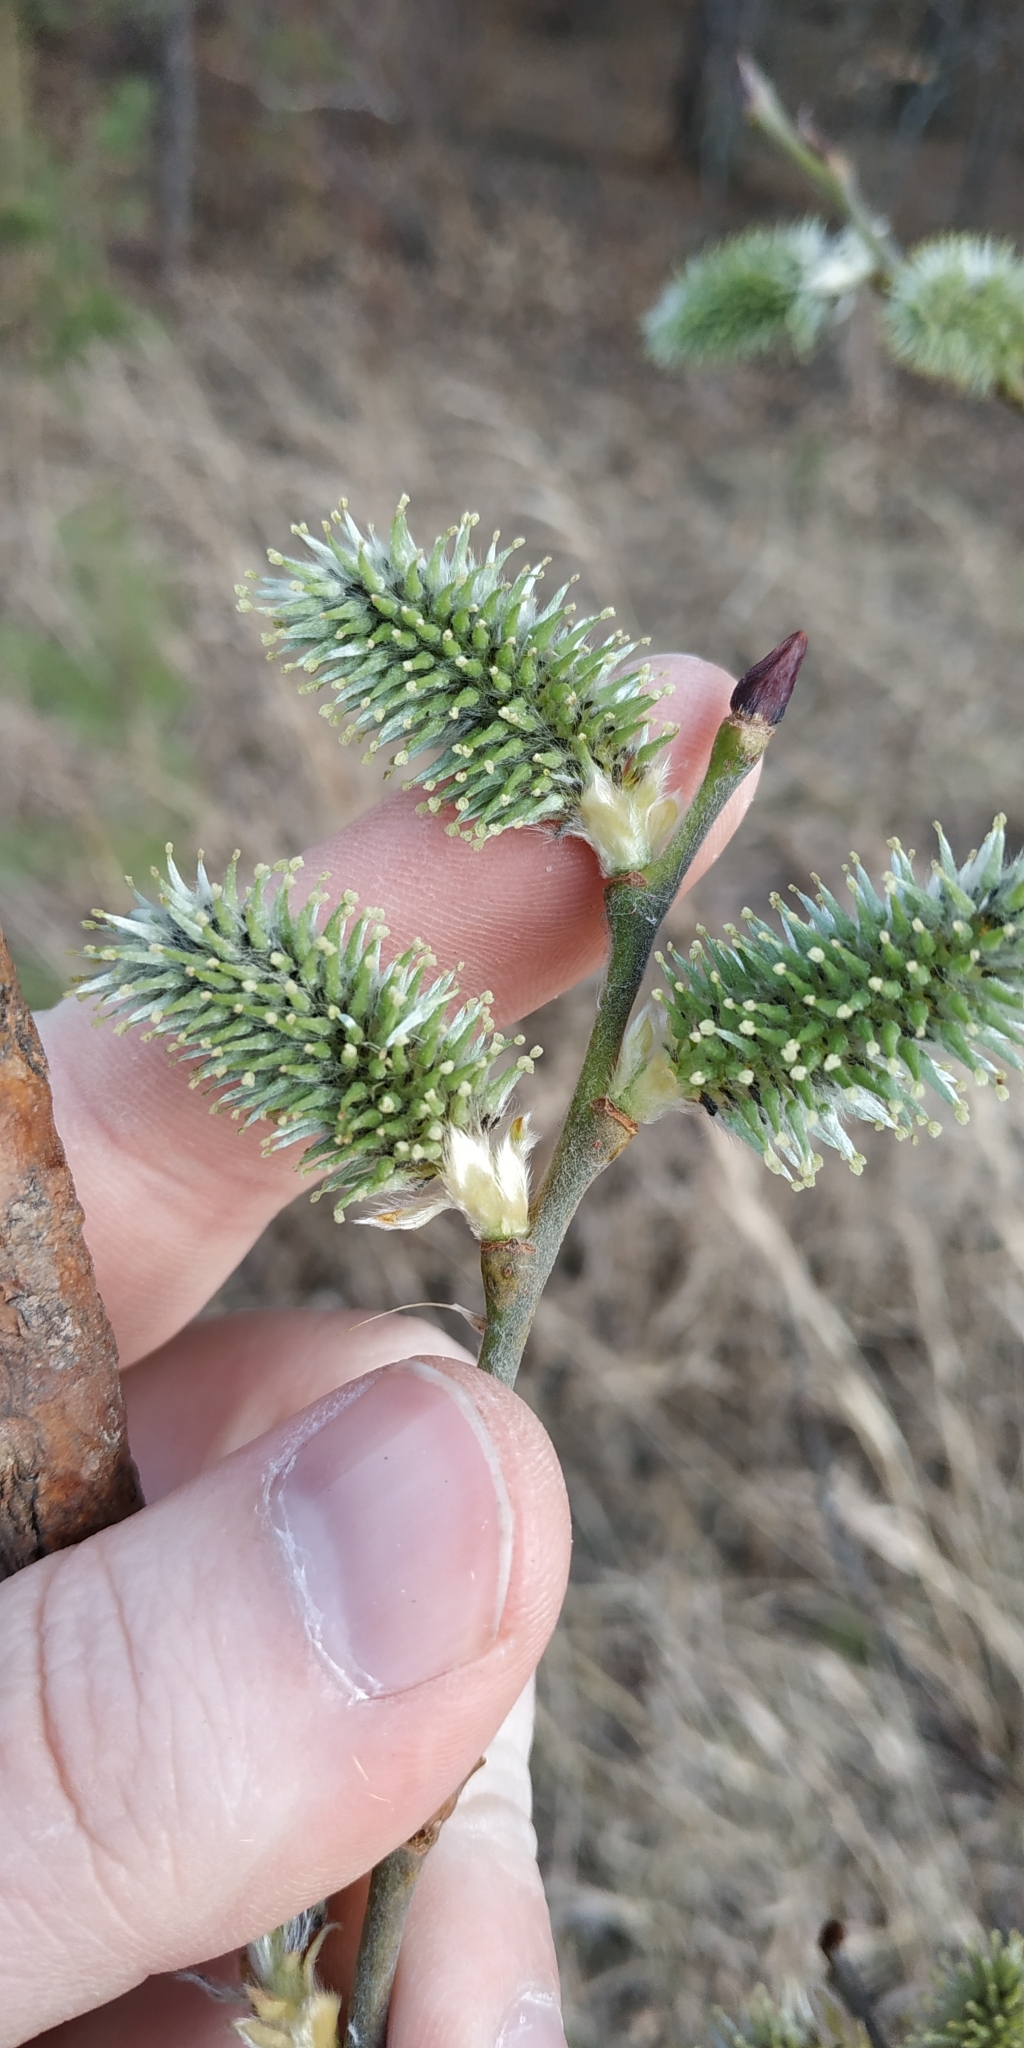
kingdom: Plantae
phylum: Tracheophyta
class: Magnoliopsida
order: Malpighiales
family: Salicaceae
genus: Salix
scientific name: Salix caprea
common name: Goat willow
